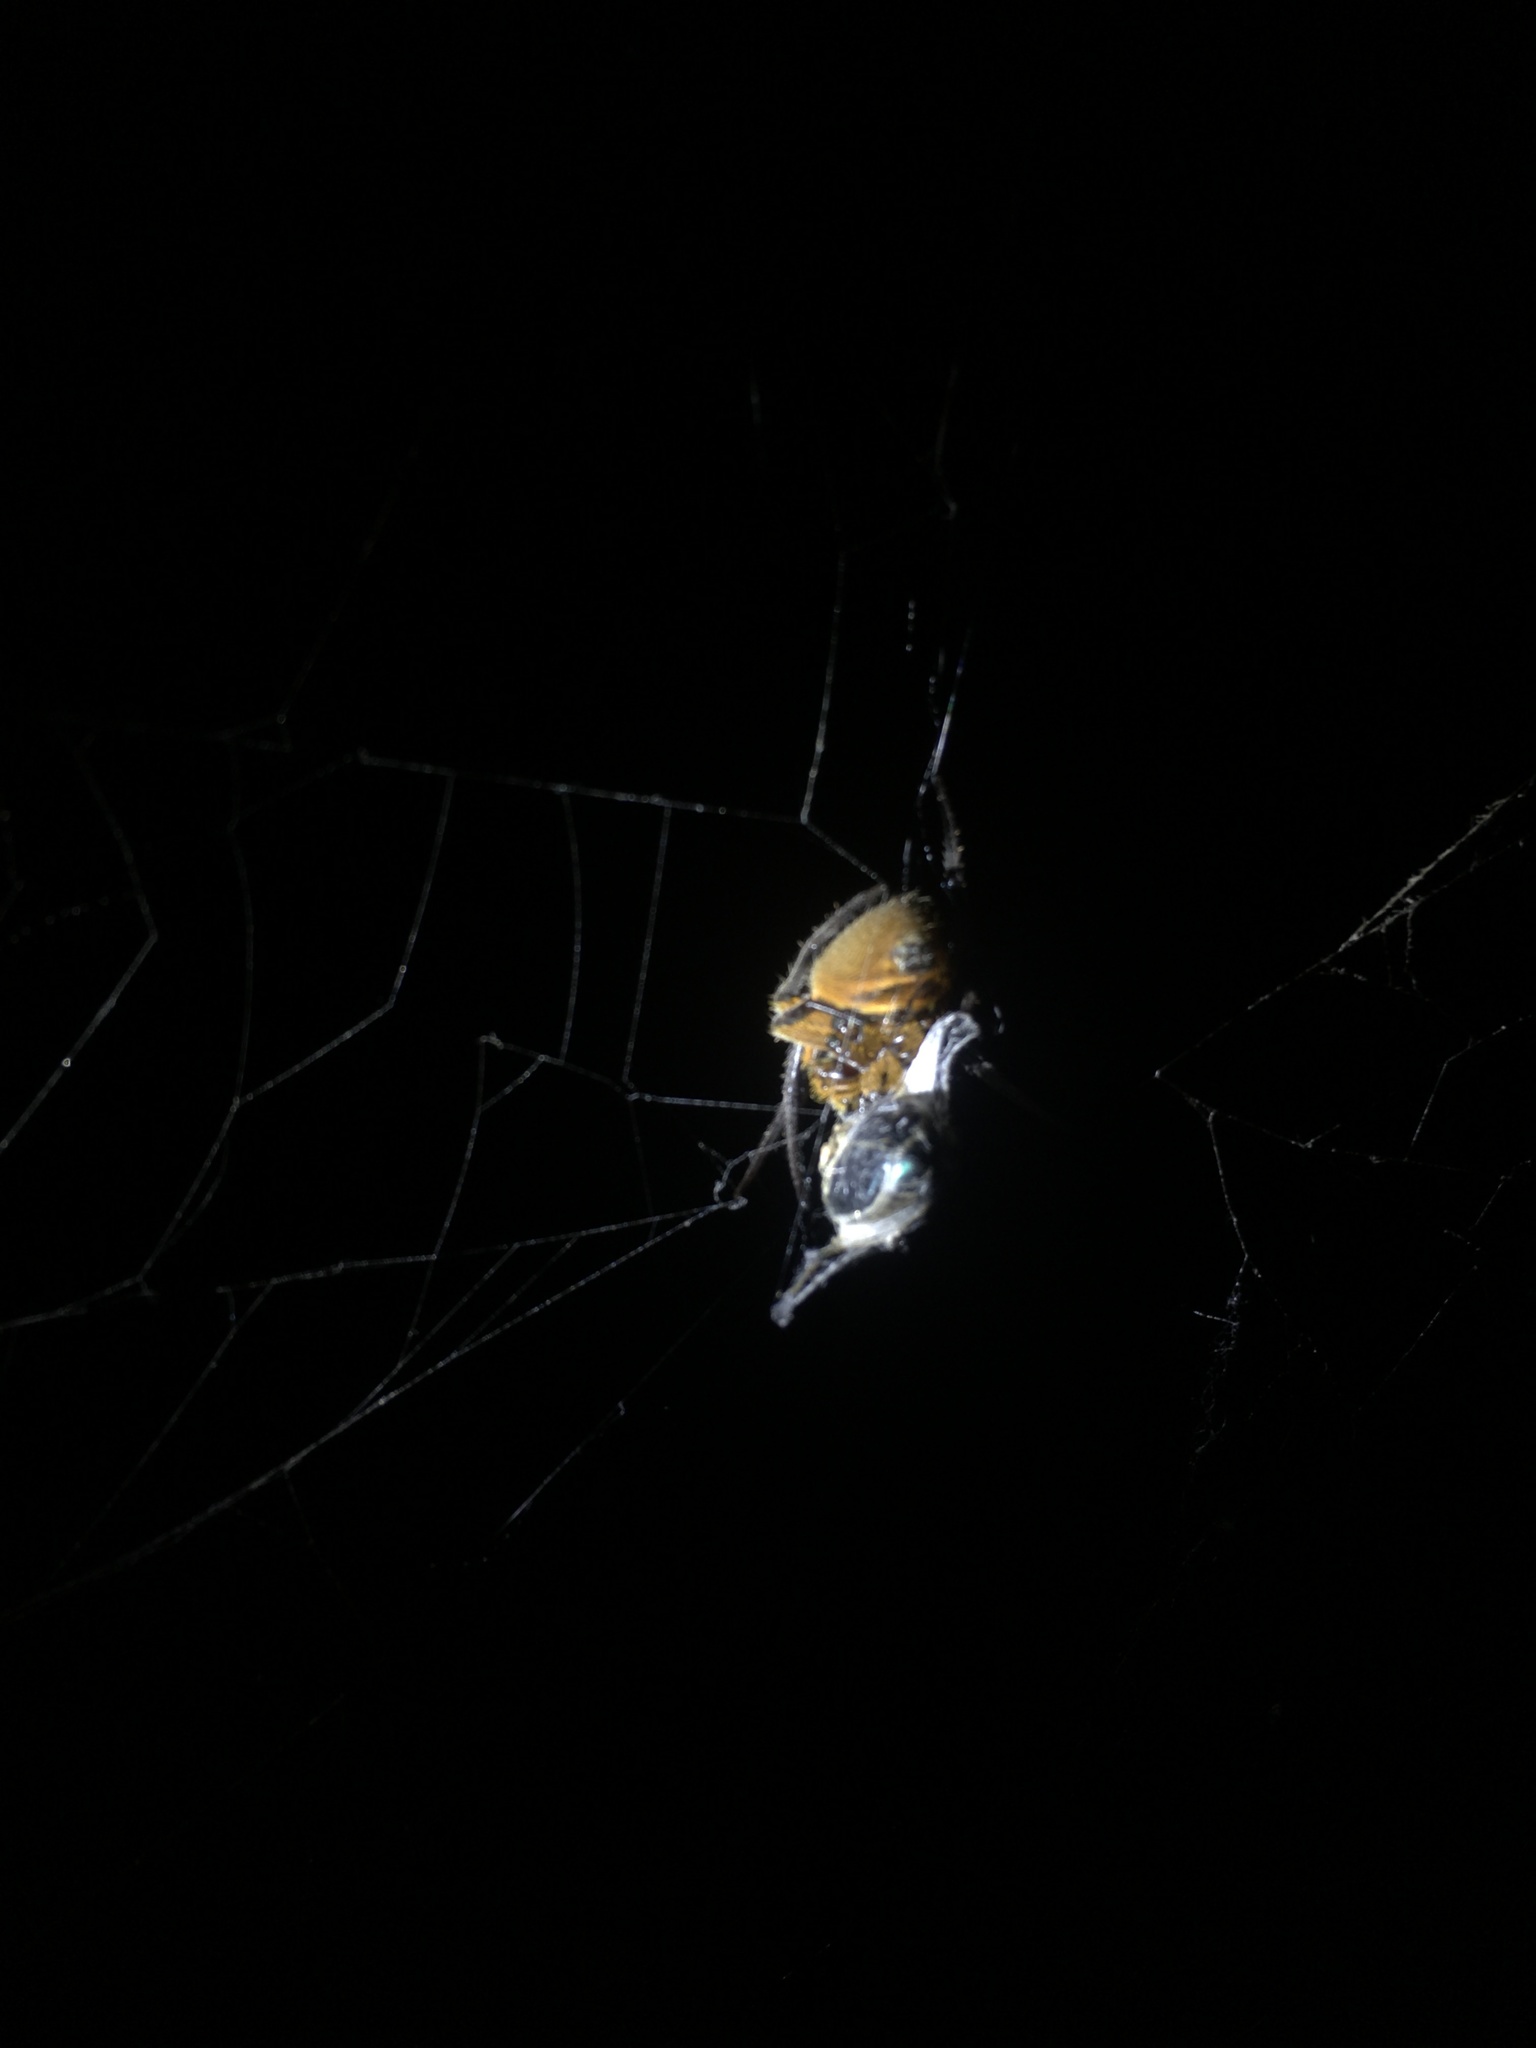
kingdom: Animalia
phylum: Arthropoda
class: Arachnida
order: Araneae
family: Araneidae
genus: Eriophora
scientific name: Eriophora fuliginea
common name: Orb weavers
